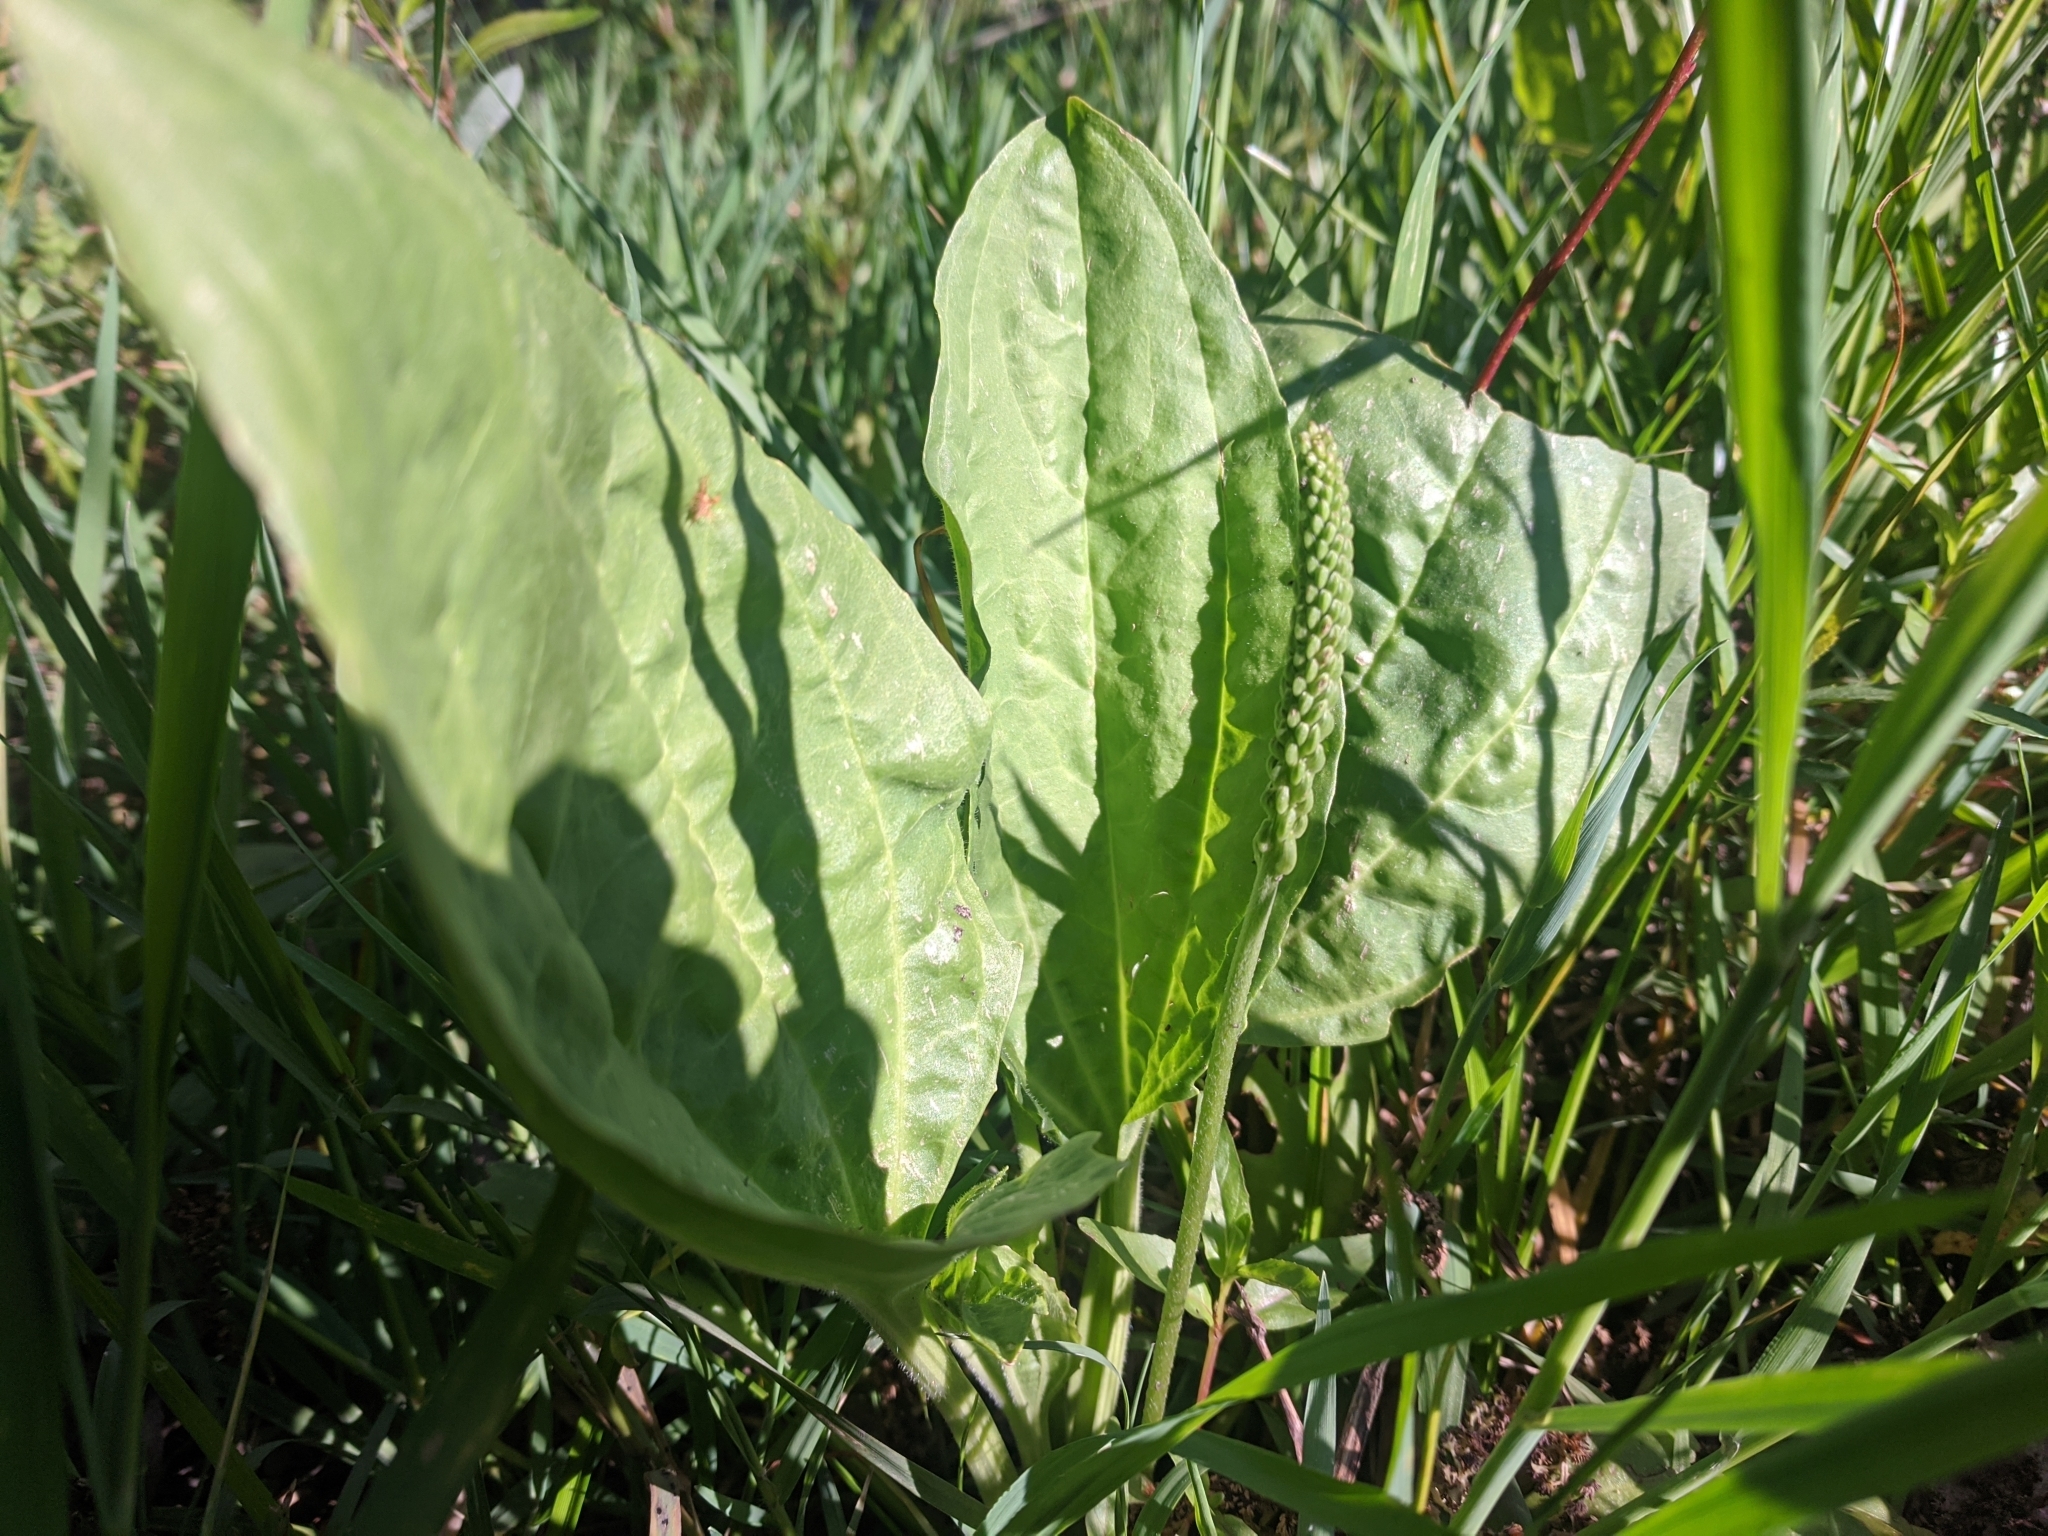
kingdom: Plantae
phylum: Tracheophyta
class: Magnoliopsida
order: Lamiales
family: Plantaginaceae
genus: Plantago
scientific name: Plantago major
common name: Common plantain
